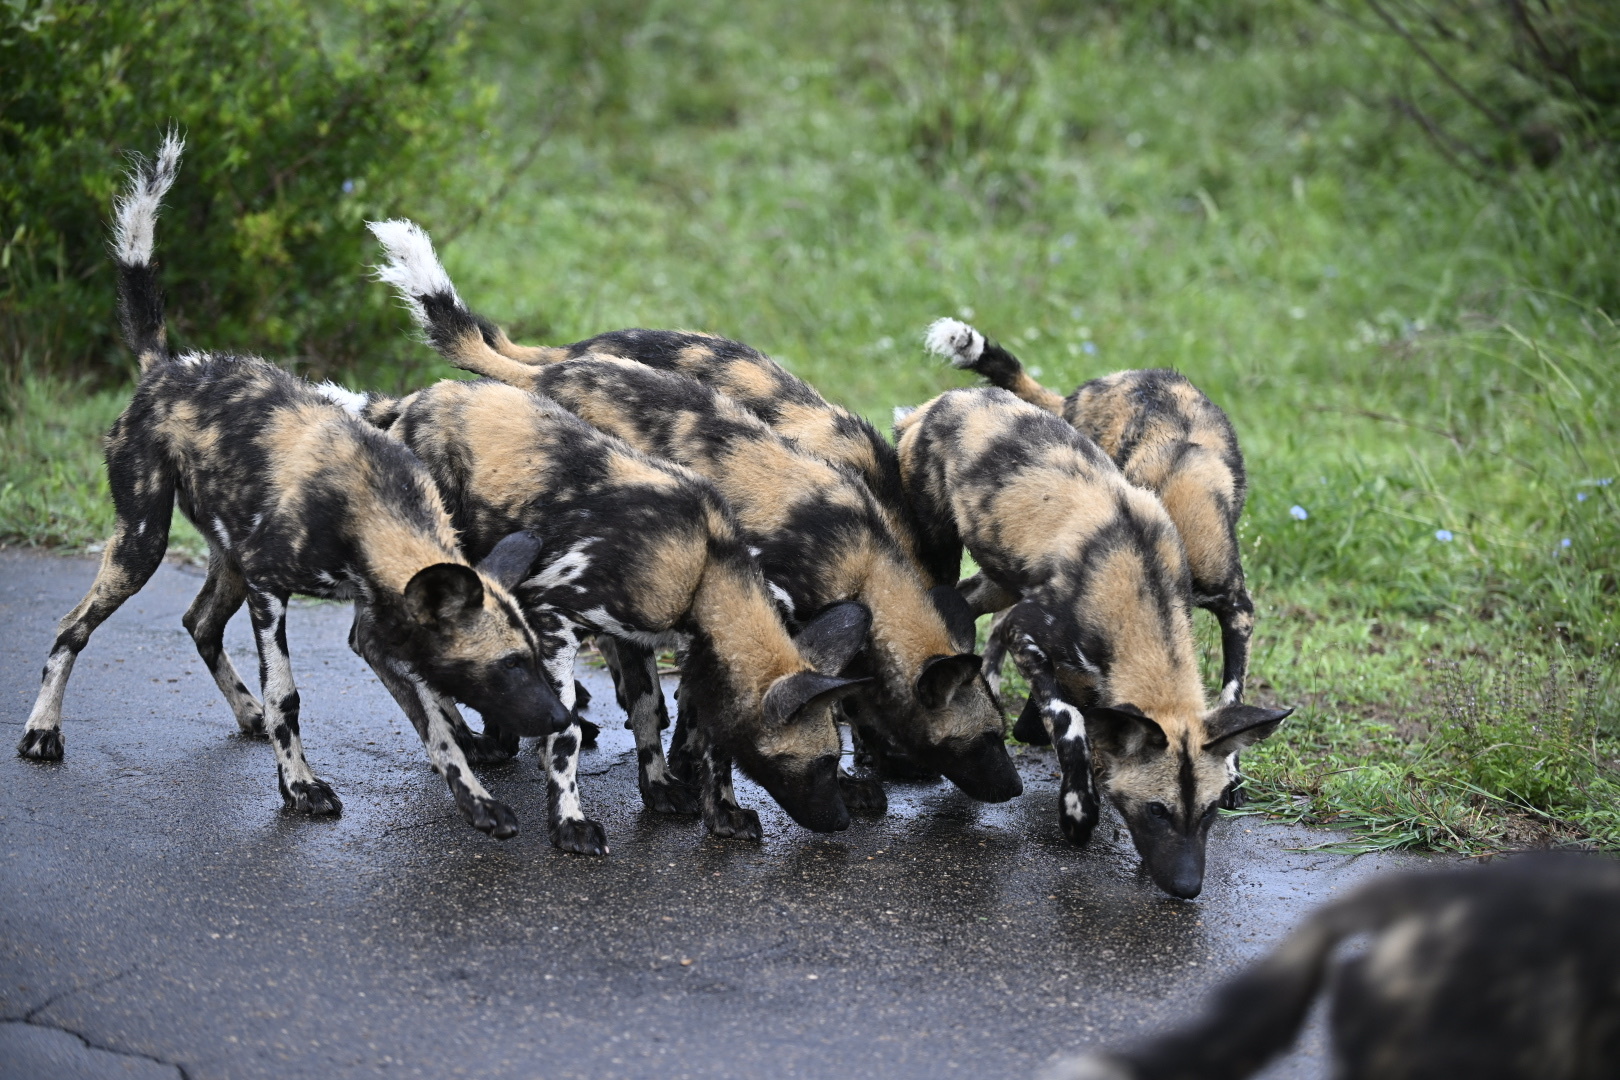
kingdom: Animalia
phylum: Chordata
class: Mammalia
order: Carnivora
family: Canidae
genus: Lycaon
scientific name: Lycaon pictus
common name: African wild dog
